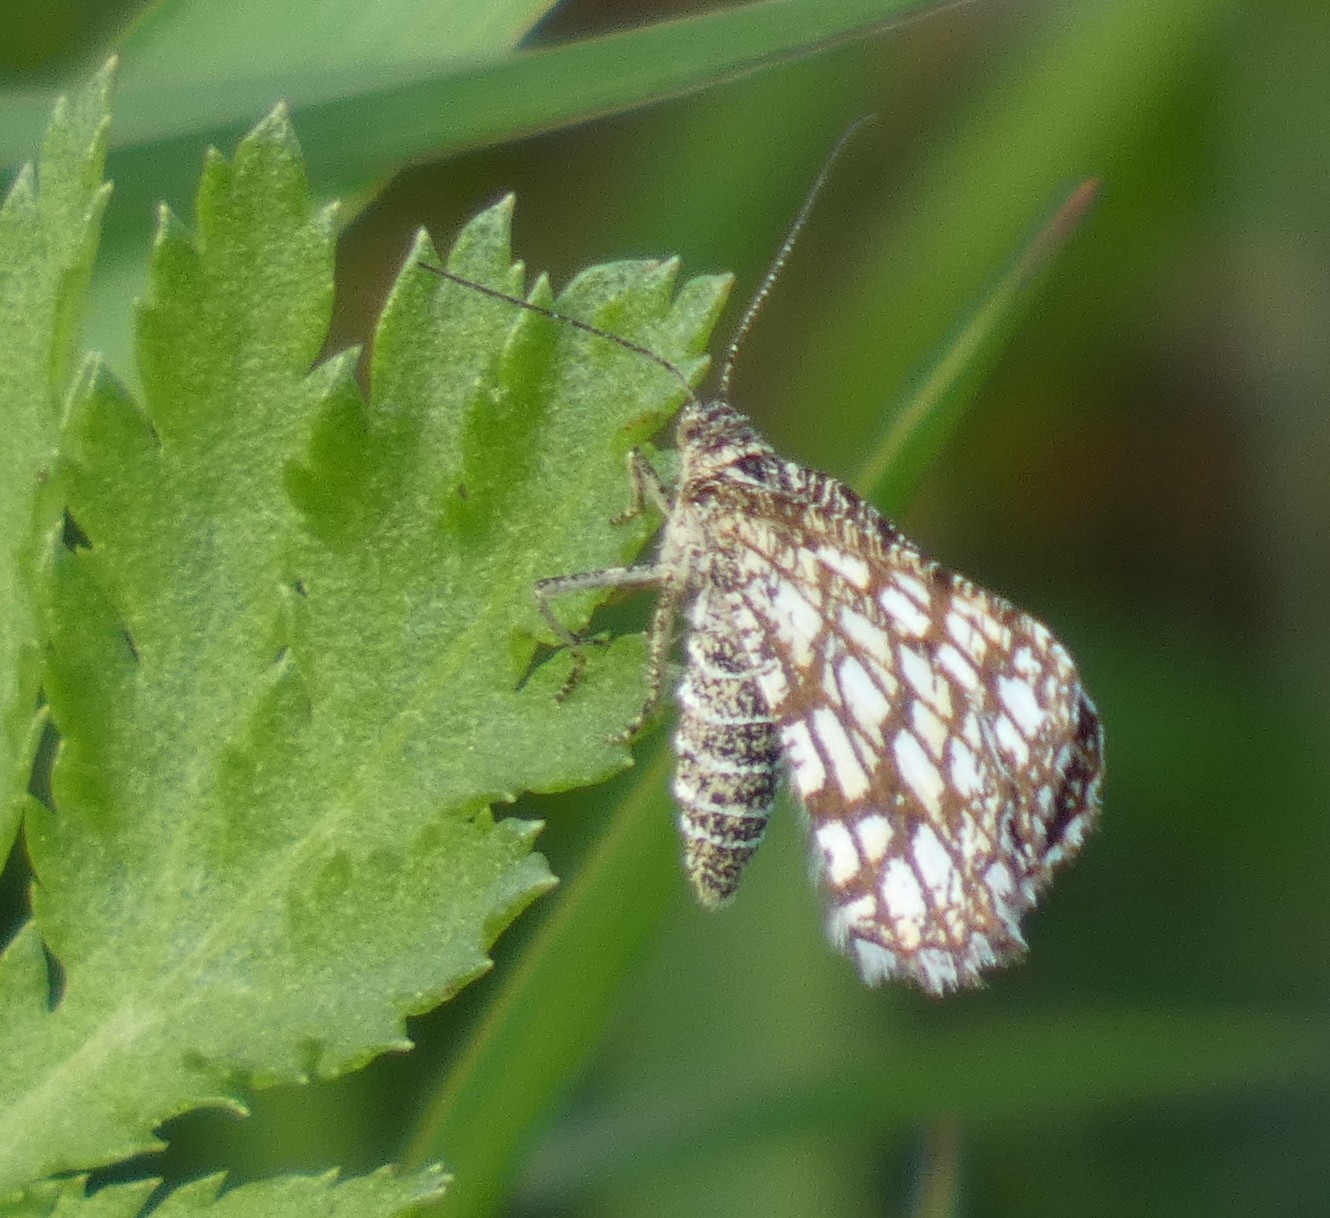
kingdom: Animalia
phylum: Arthropoda
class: Insecta
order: Lepidoptera
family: Geometridae
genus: Chiasmia
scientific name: Chiasmia clathrata
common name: Latticed heath
